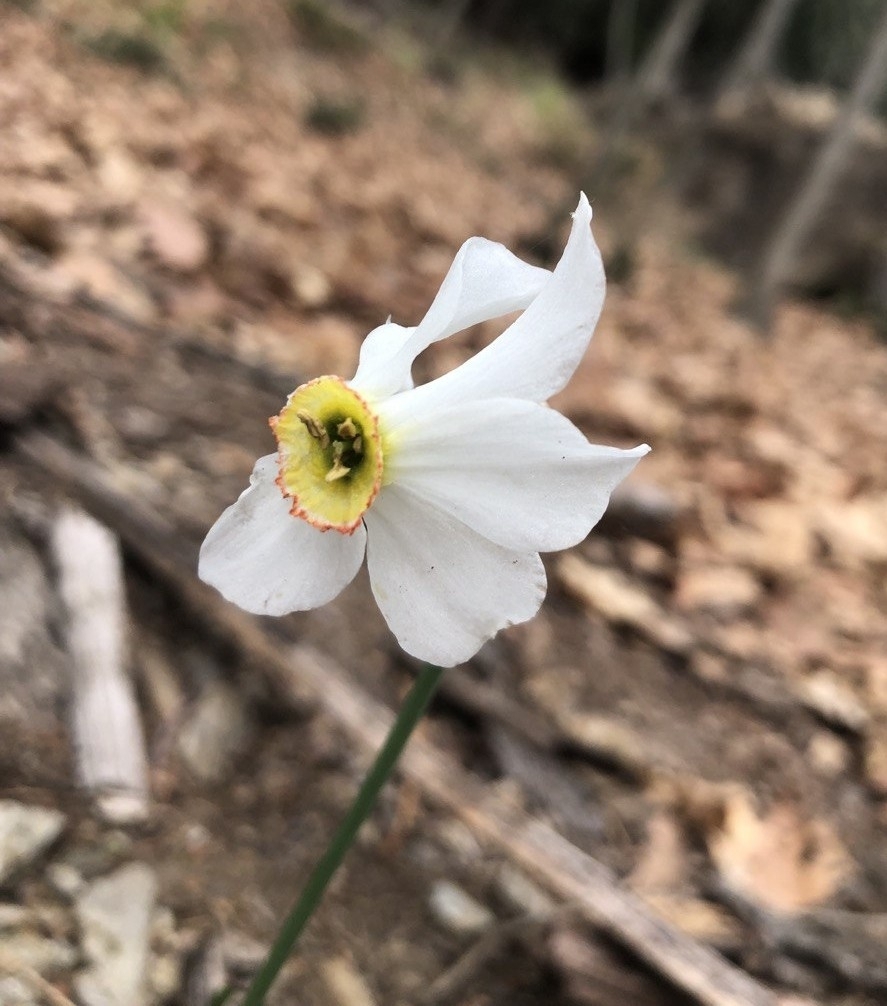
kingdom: Plantae
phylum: Tracheophyta
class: Liliopsida
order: Asparagales
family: Amaryllidaceae
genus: Narcissus
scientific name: Narcissus poeticus
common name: Pheasant's-eye daffodil
